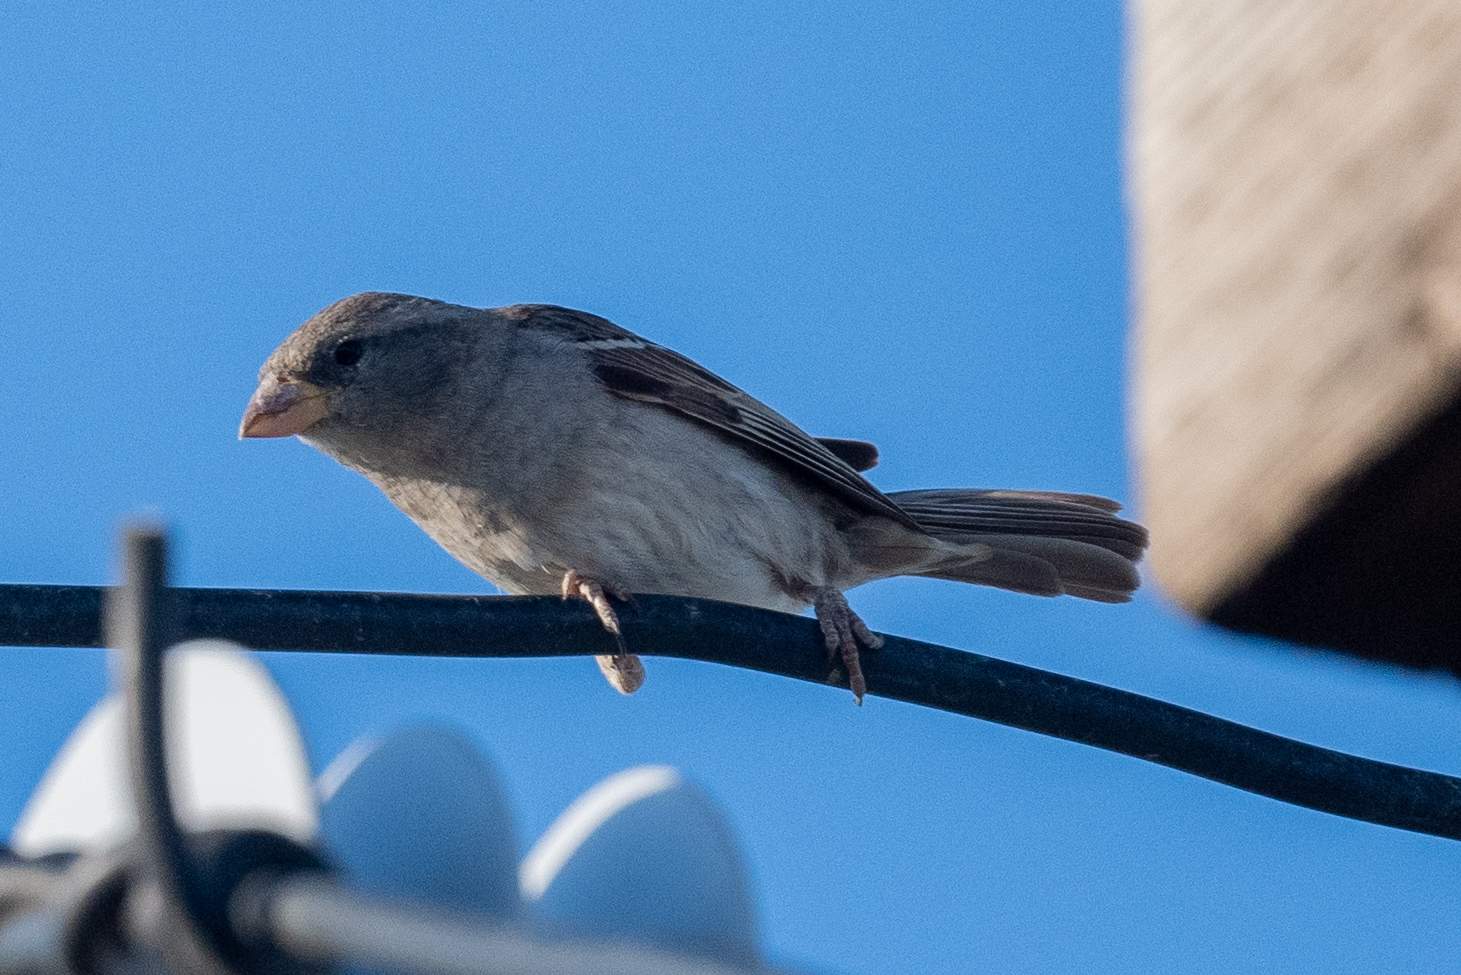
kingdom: Animalia
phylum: Chordata
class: Aves
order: Passeriformes
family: Passeridae
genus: Passer
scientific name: Passer domesticus
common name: House sparrow
